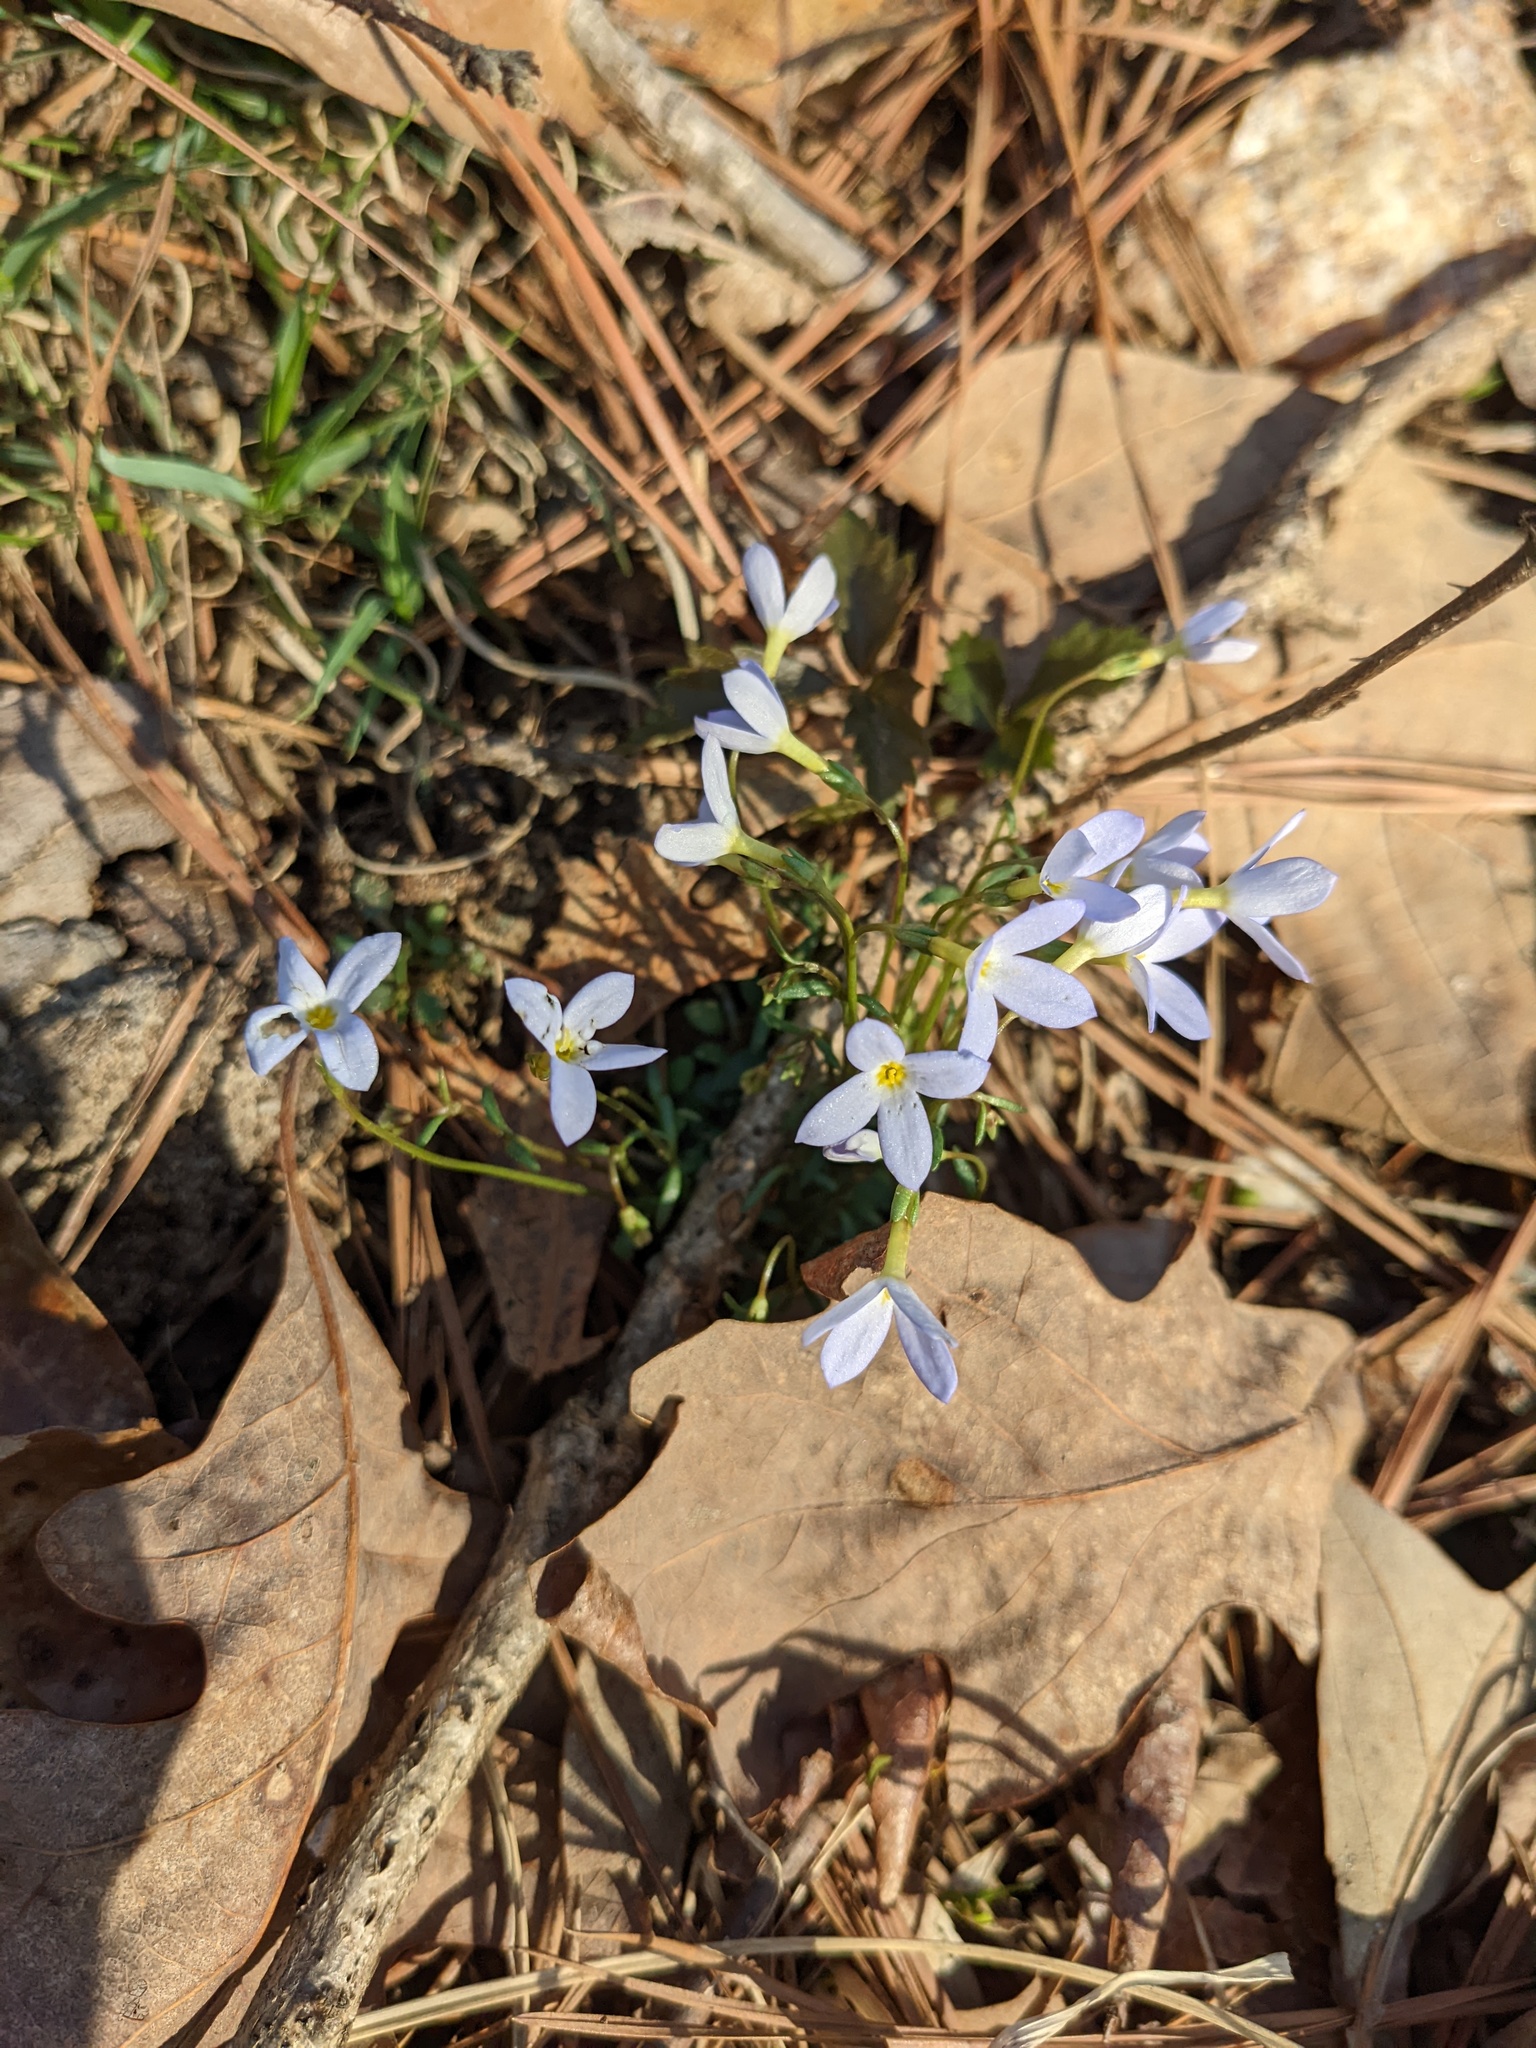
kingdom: Plantae
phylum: Tracheophyta
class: Magnoliopsida
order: Gentianales
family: Rubiaceae
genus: Houstonia
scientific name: Houstonia caerulea
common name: Bluets
